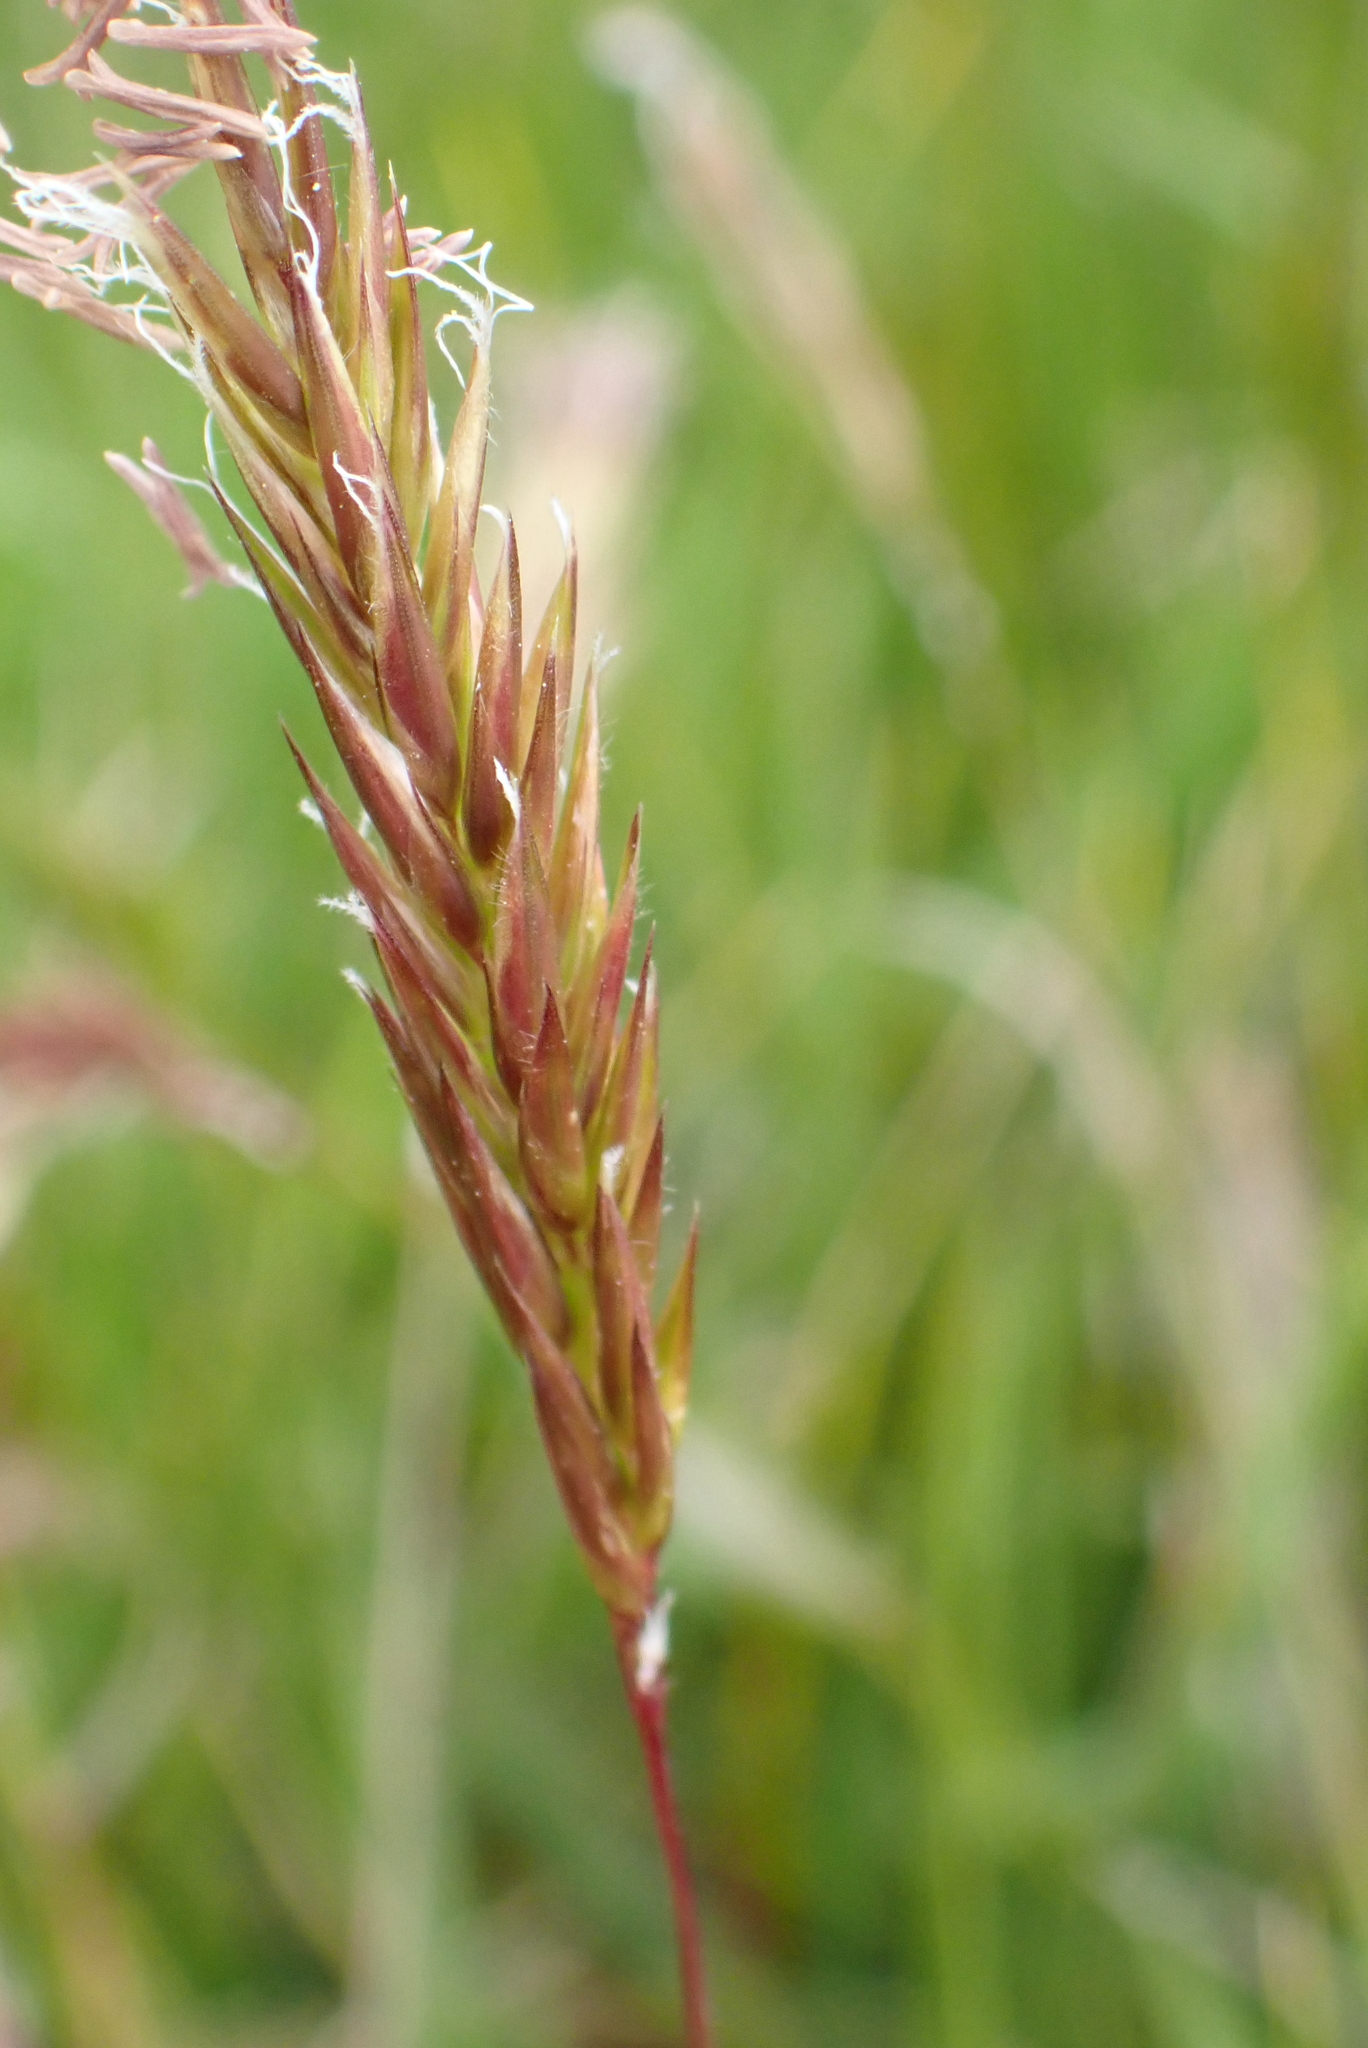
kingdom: Plantae
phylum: Tracheophyta
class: Liliopsida
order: Poales
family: Poaceae
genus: Anthoxanthum
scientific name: Anthoxanthum odoratum
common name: Sweet vernalgrass
